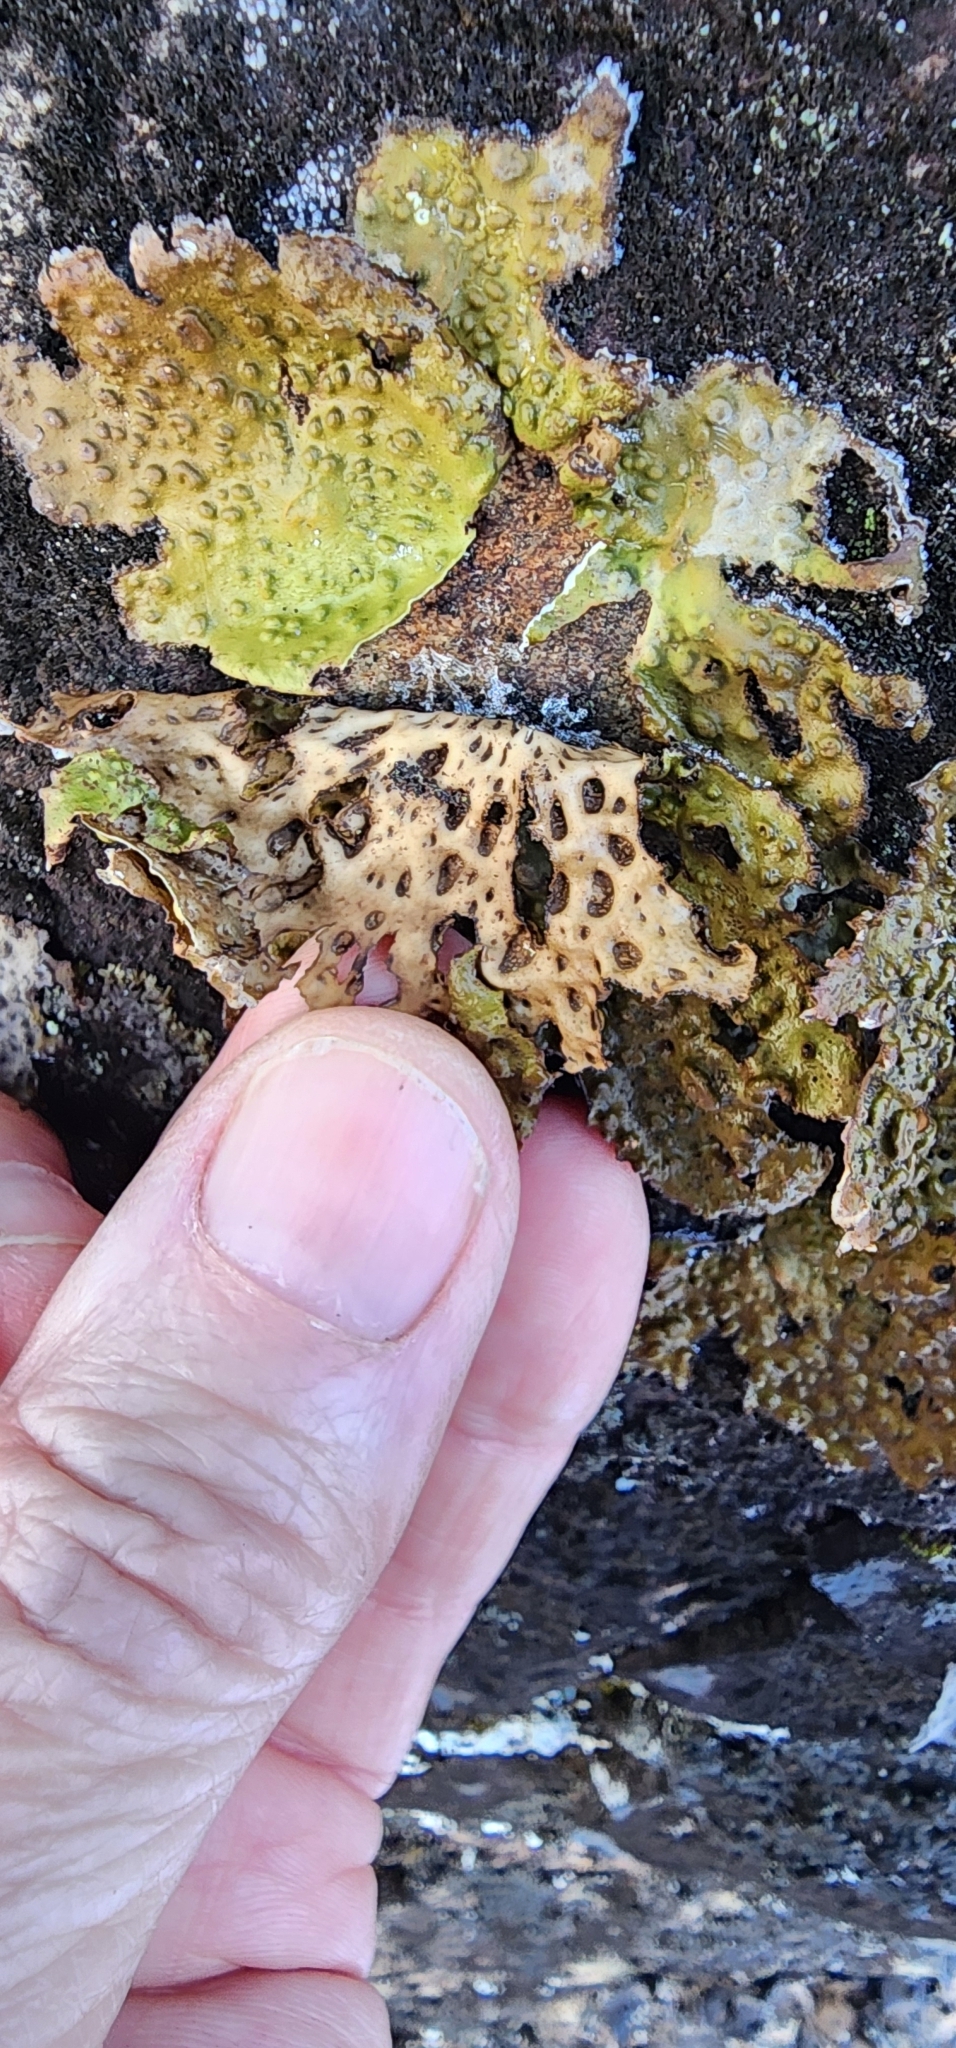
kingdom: Fungi
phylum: Ascomycota
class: Lecanoromycetes
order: Umbilicariales
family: Umbilicariaceae
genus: Lasallia
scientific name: Lasallia papulosa
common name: Common toadskin lichen
